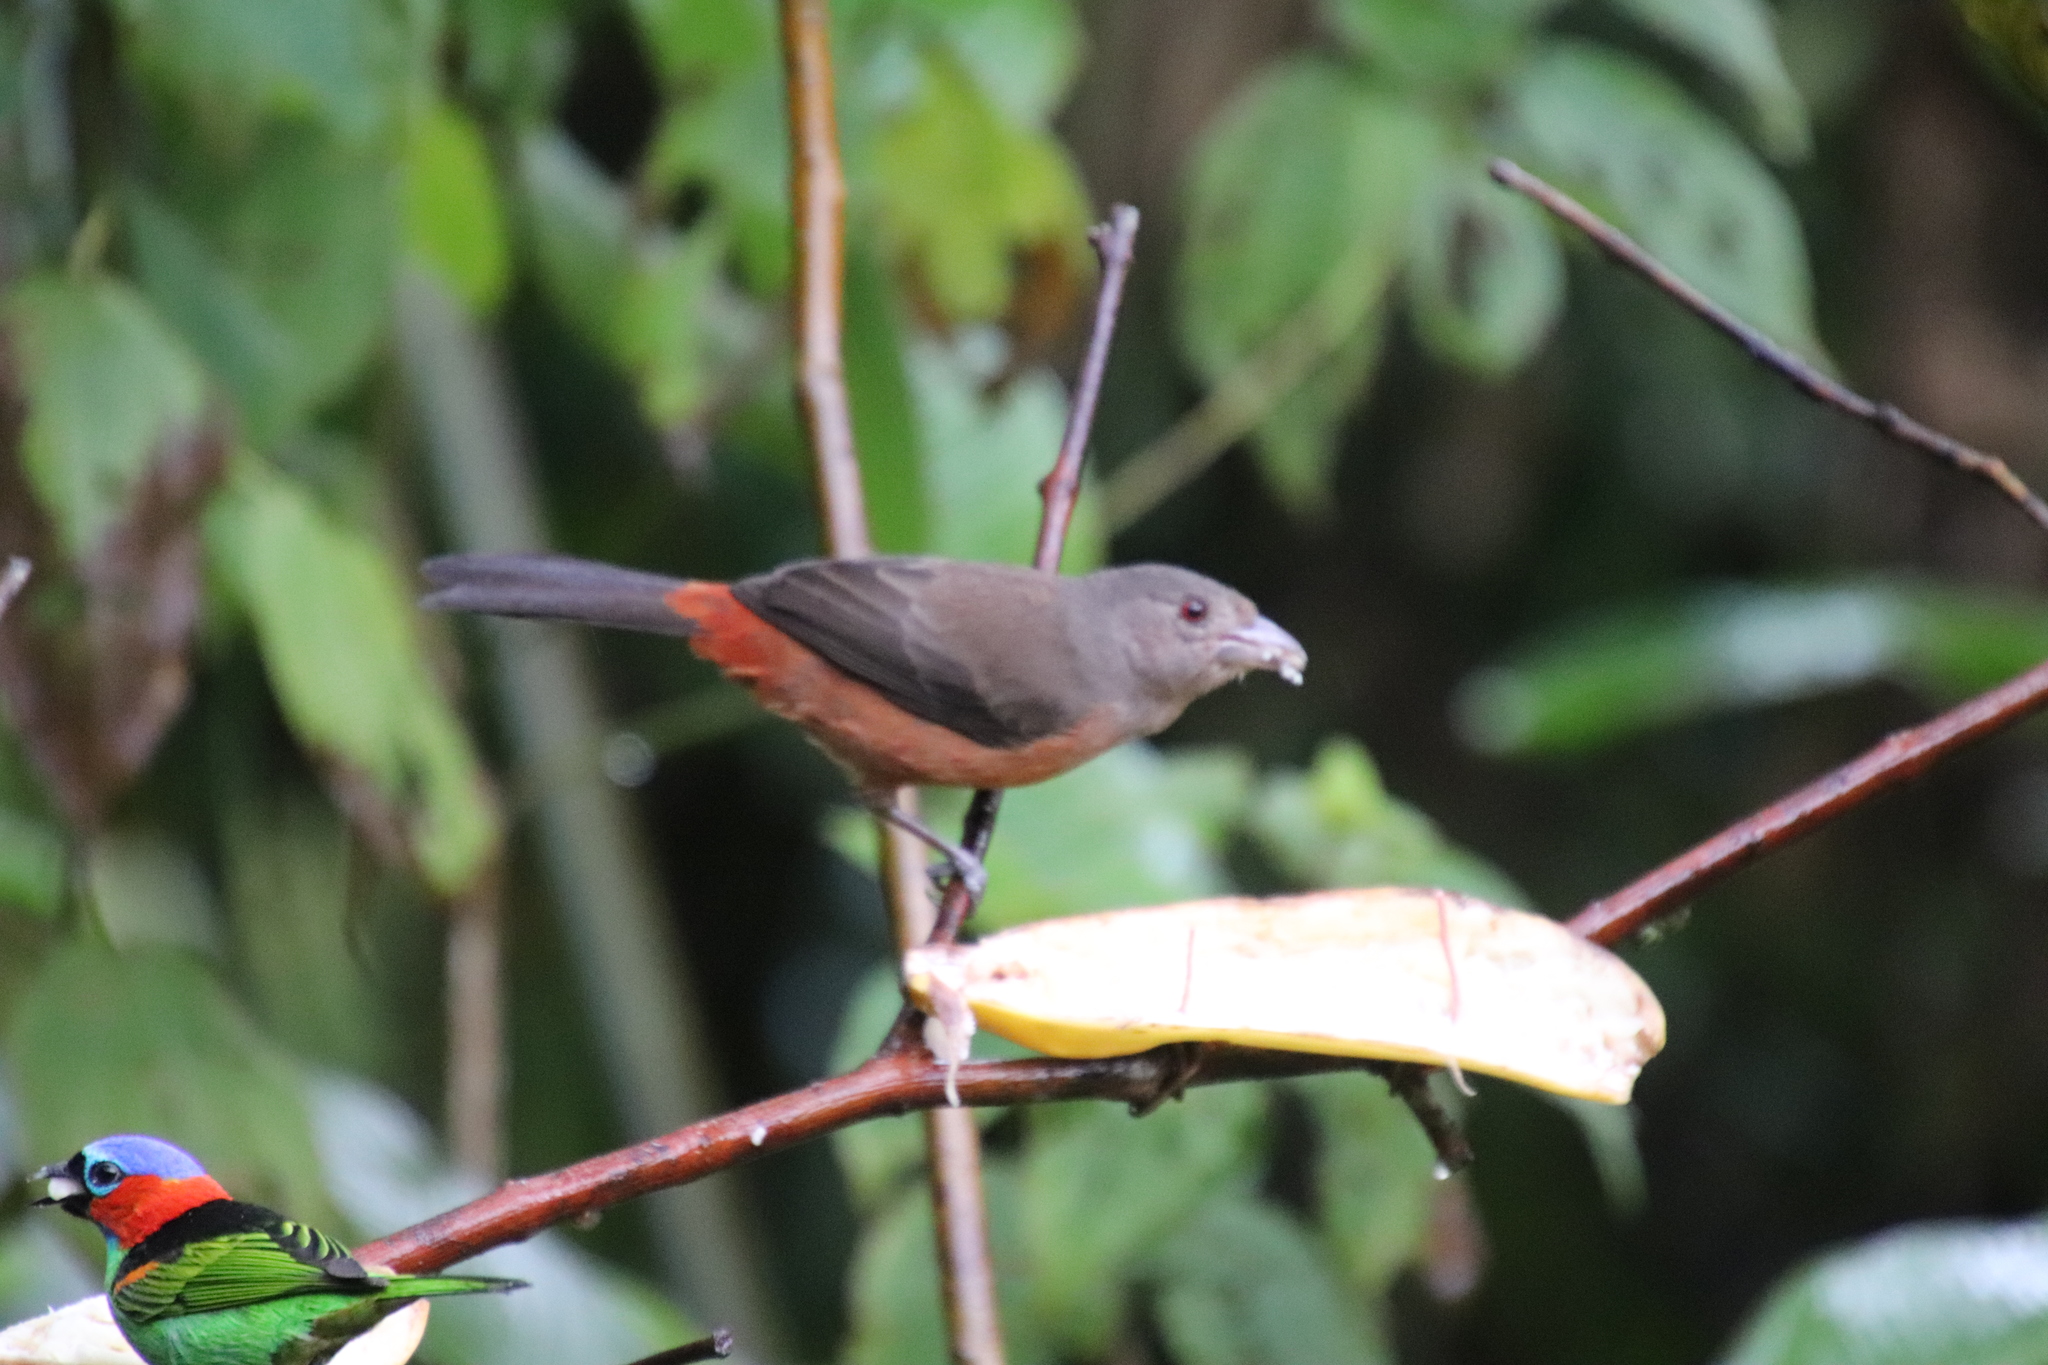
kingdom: Animalia
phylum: Chordata
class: Aves
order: Passeriformes
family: Thraupidae
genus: Ramphocelus
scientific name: Ramphocelus bresilia
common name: Brazilian tanager
